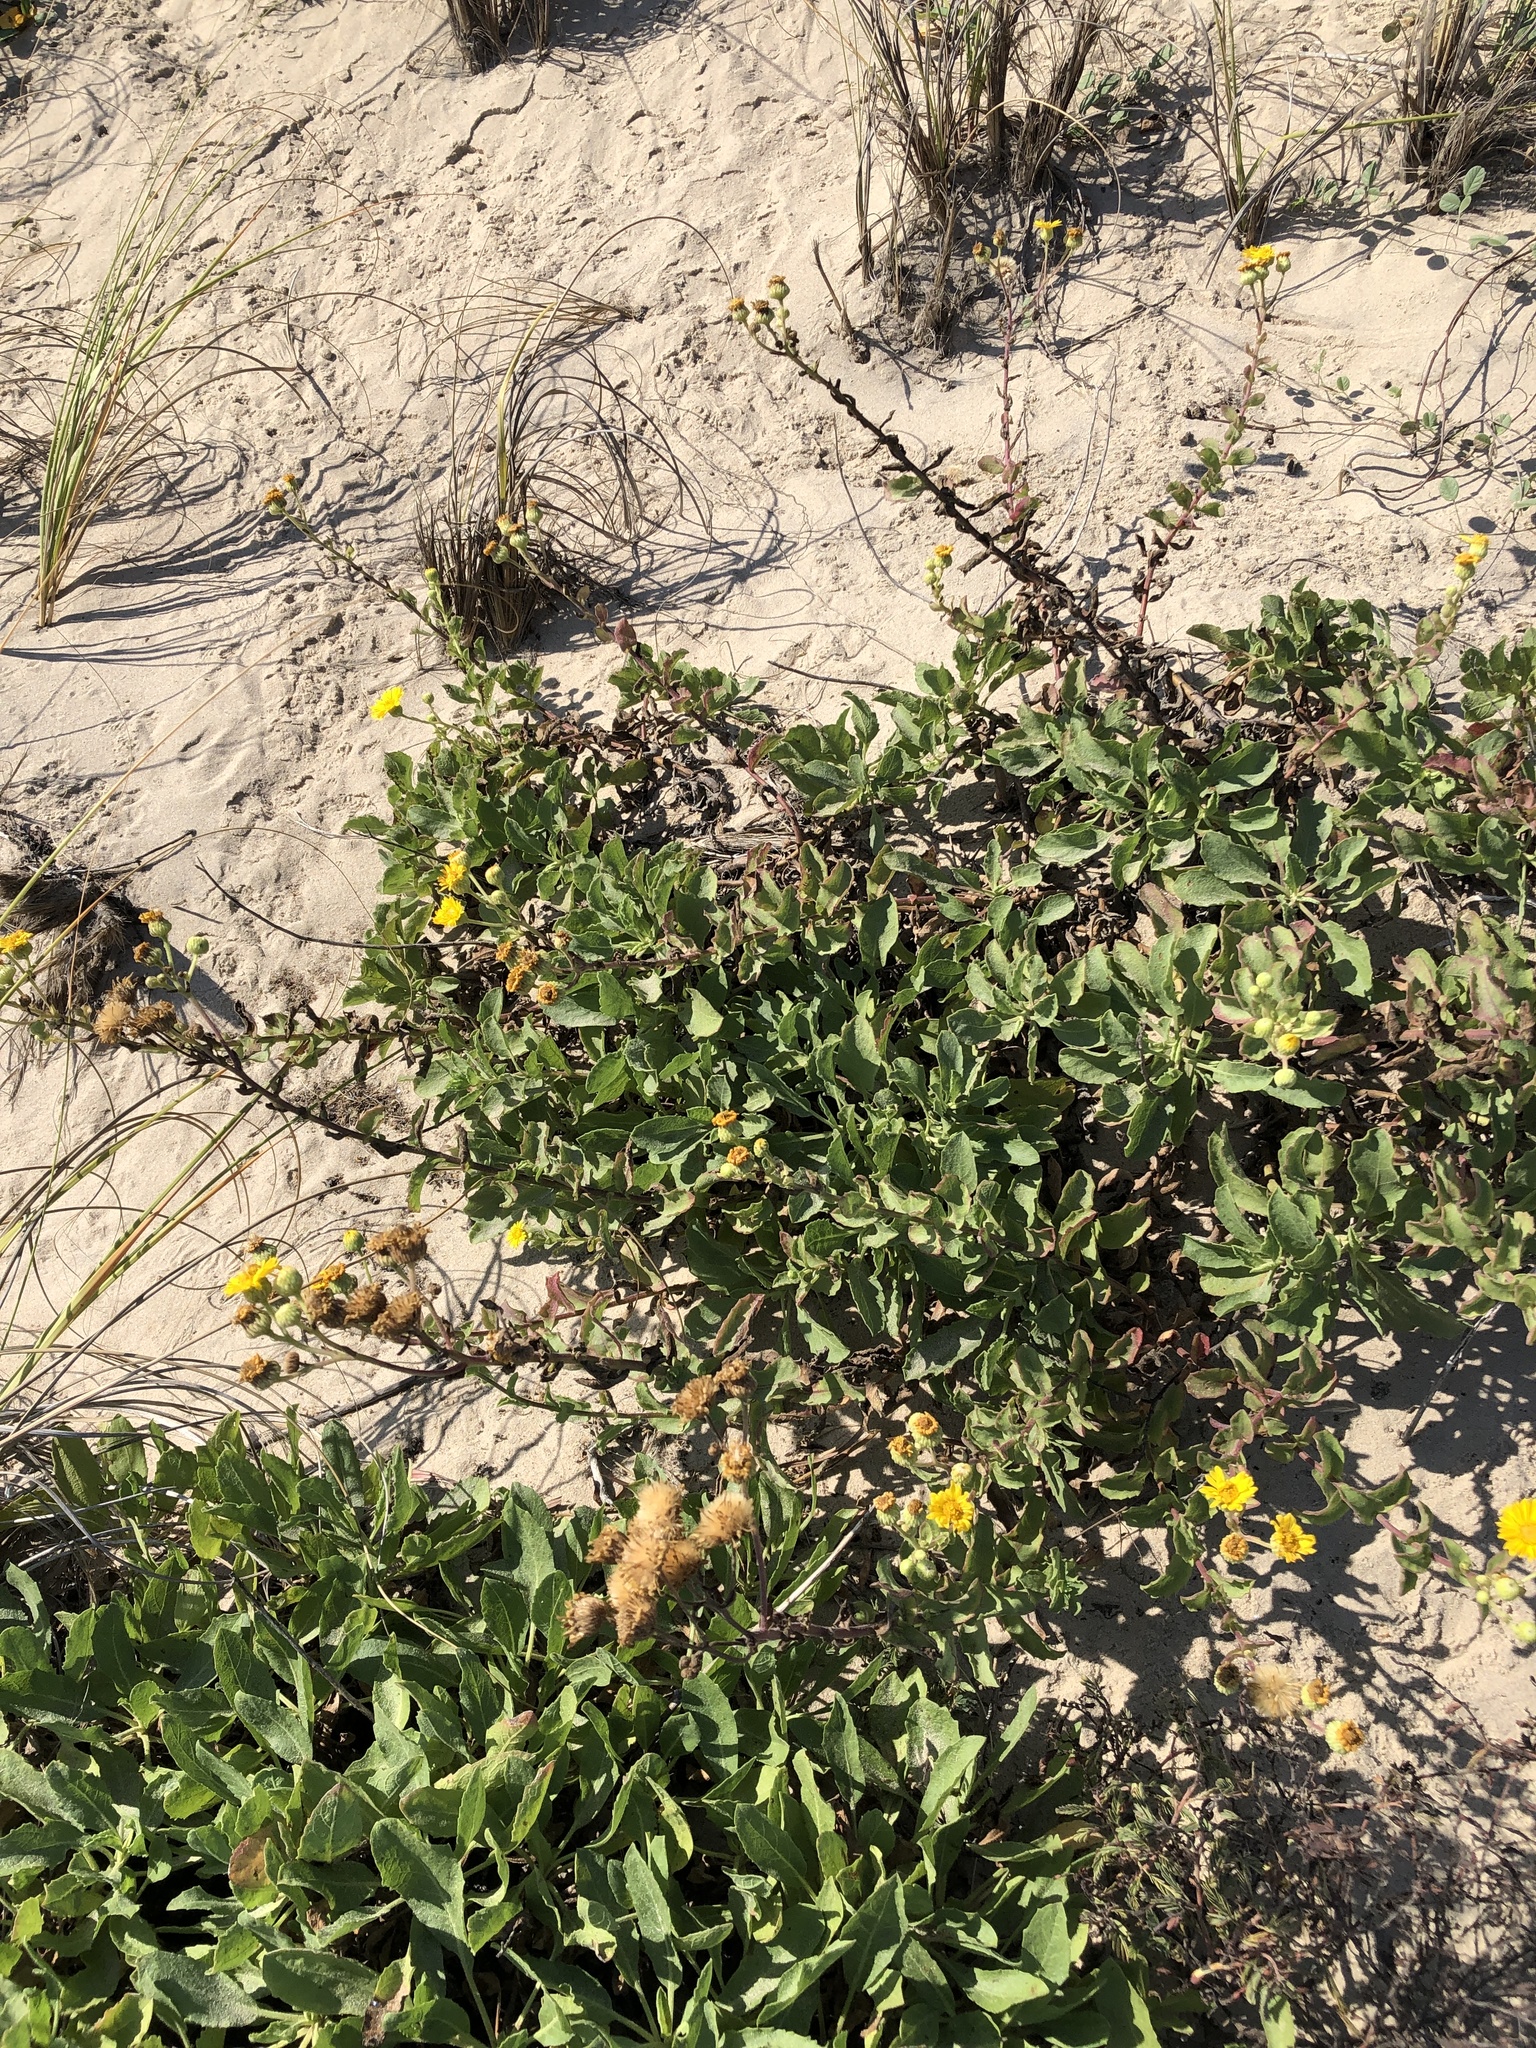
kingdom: Plantae
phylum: Tracheophyta
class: Magnoliopsida
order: Asterales
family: Asteraceae
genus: Heterotheca
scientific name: Heterotheca subaxillaris
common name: Camphorweed
